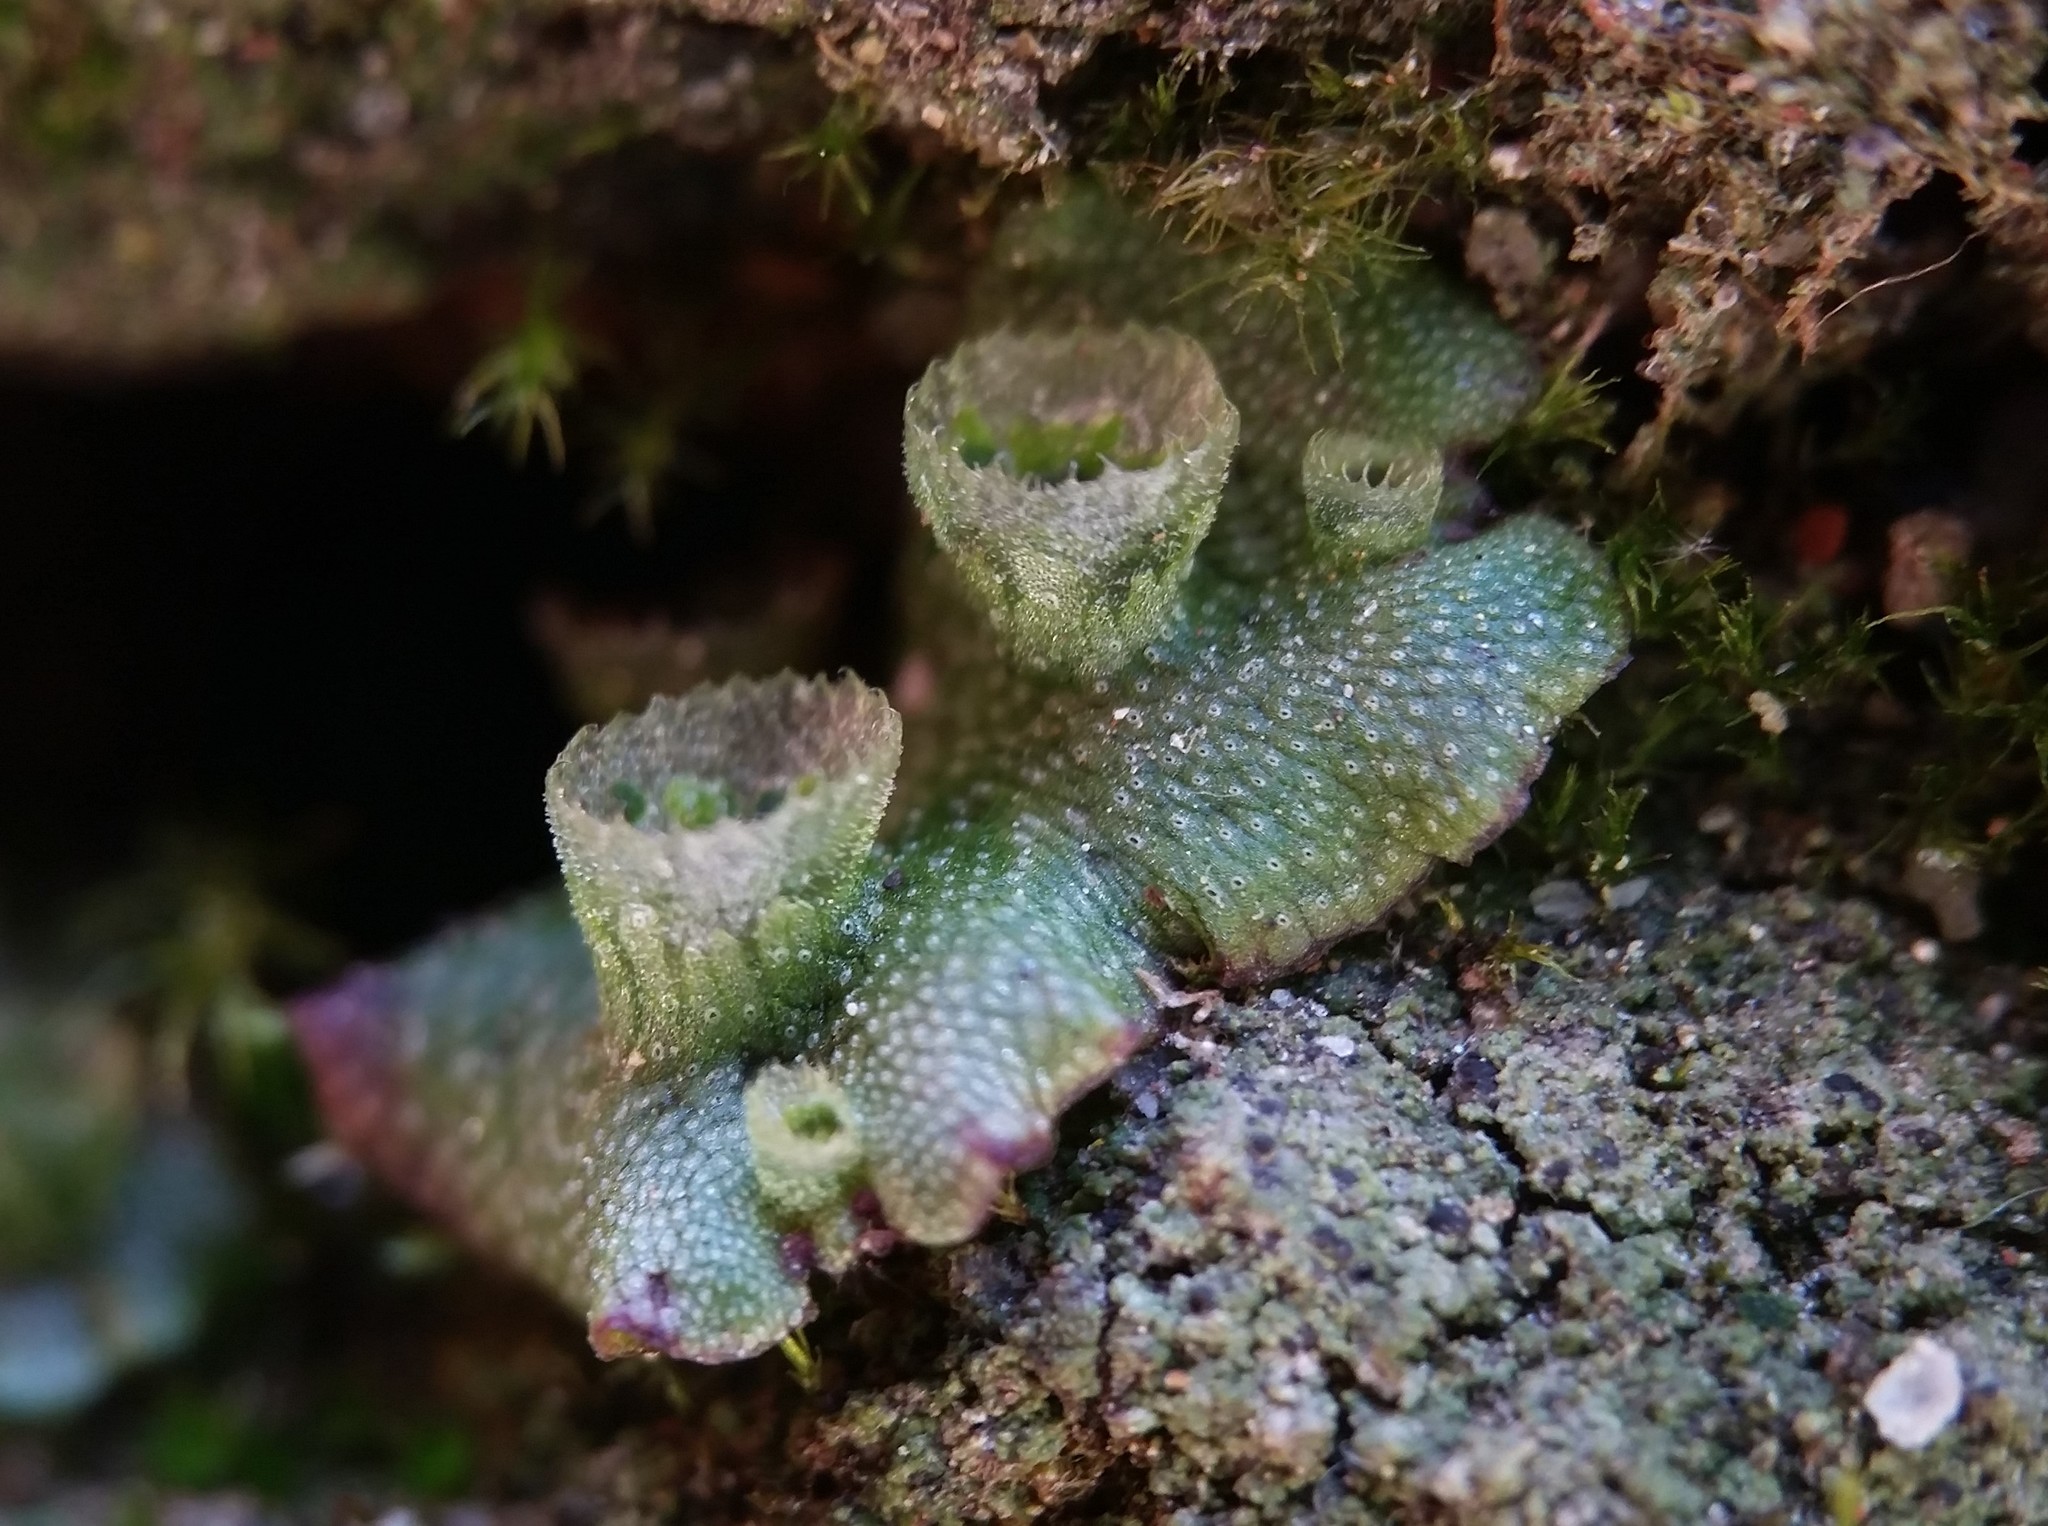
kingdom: Plantae
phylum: Marchantiophyta
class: Marchantiopsida
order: Marchantiales
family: Marchantiaceae
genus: Marchantia
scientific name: Marchantia polymorpha
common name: Common liverwort
